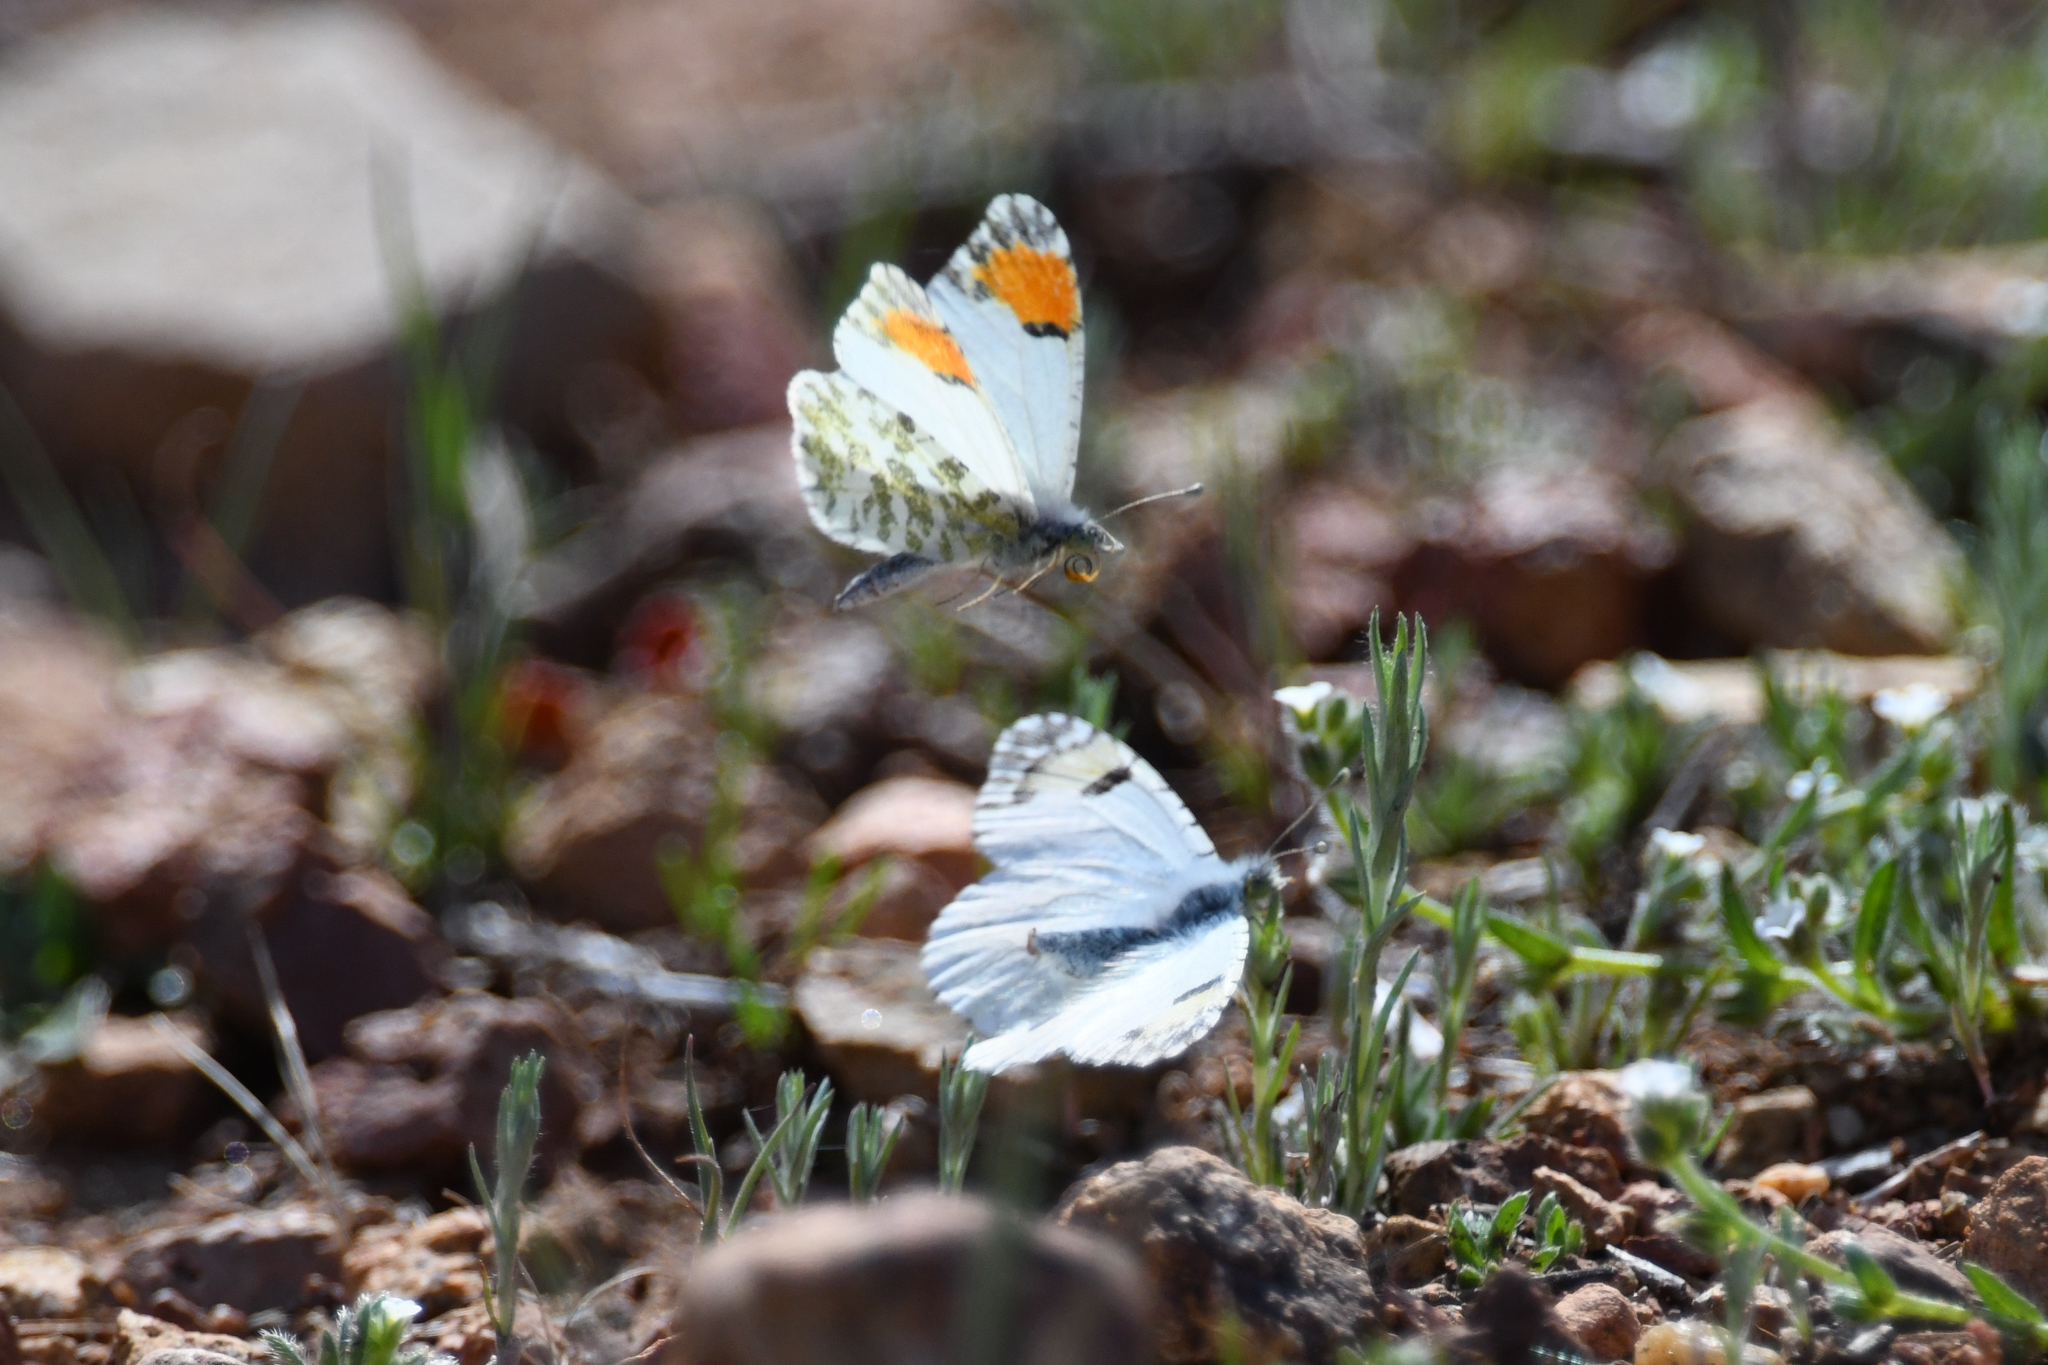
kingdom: Animalia
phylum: Arthropoda
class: Insecta
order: Lepidoptera
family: Pieridae
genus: Anthocharis
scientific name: Anthocharis sara
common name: Sara's orangetip
